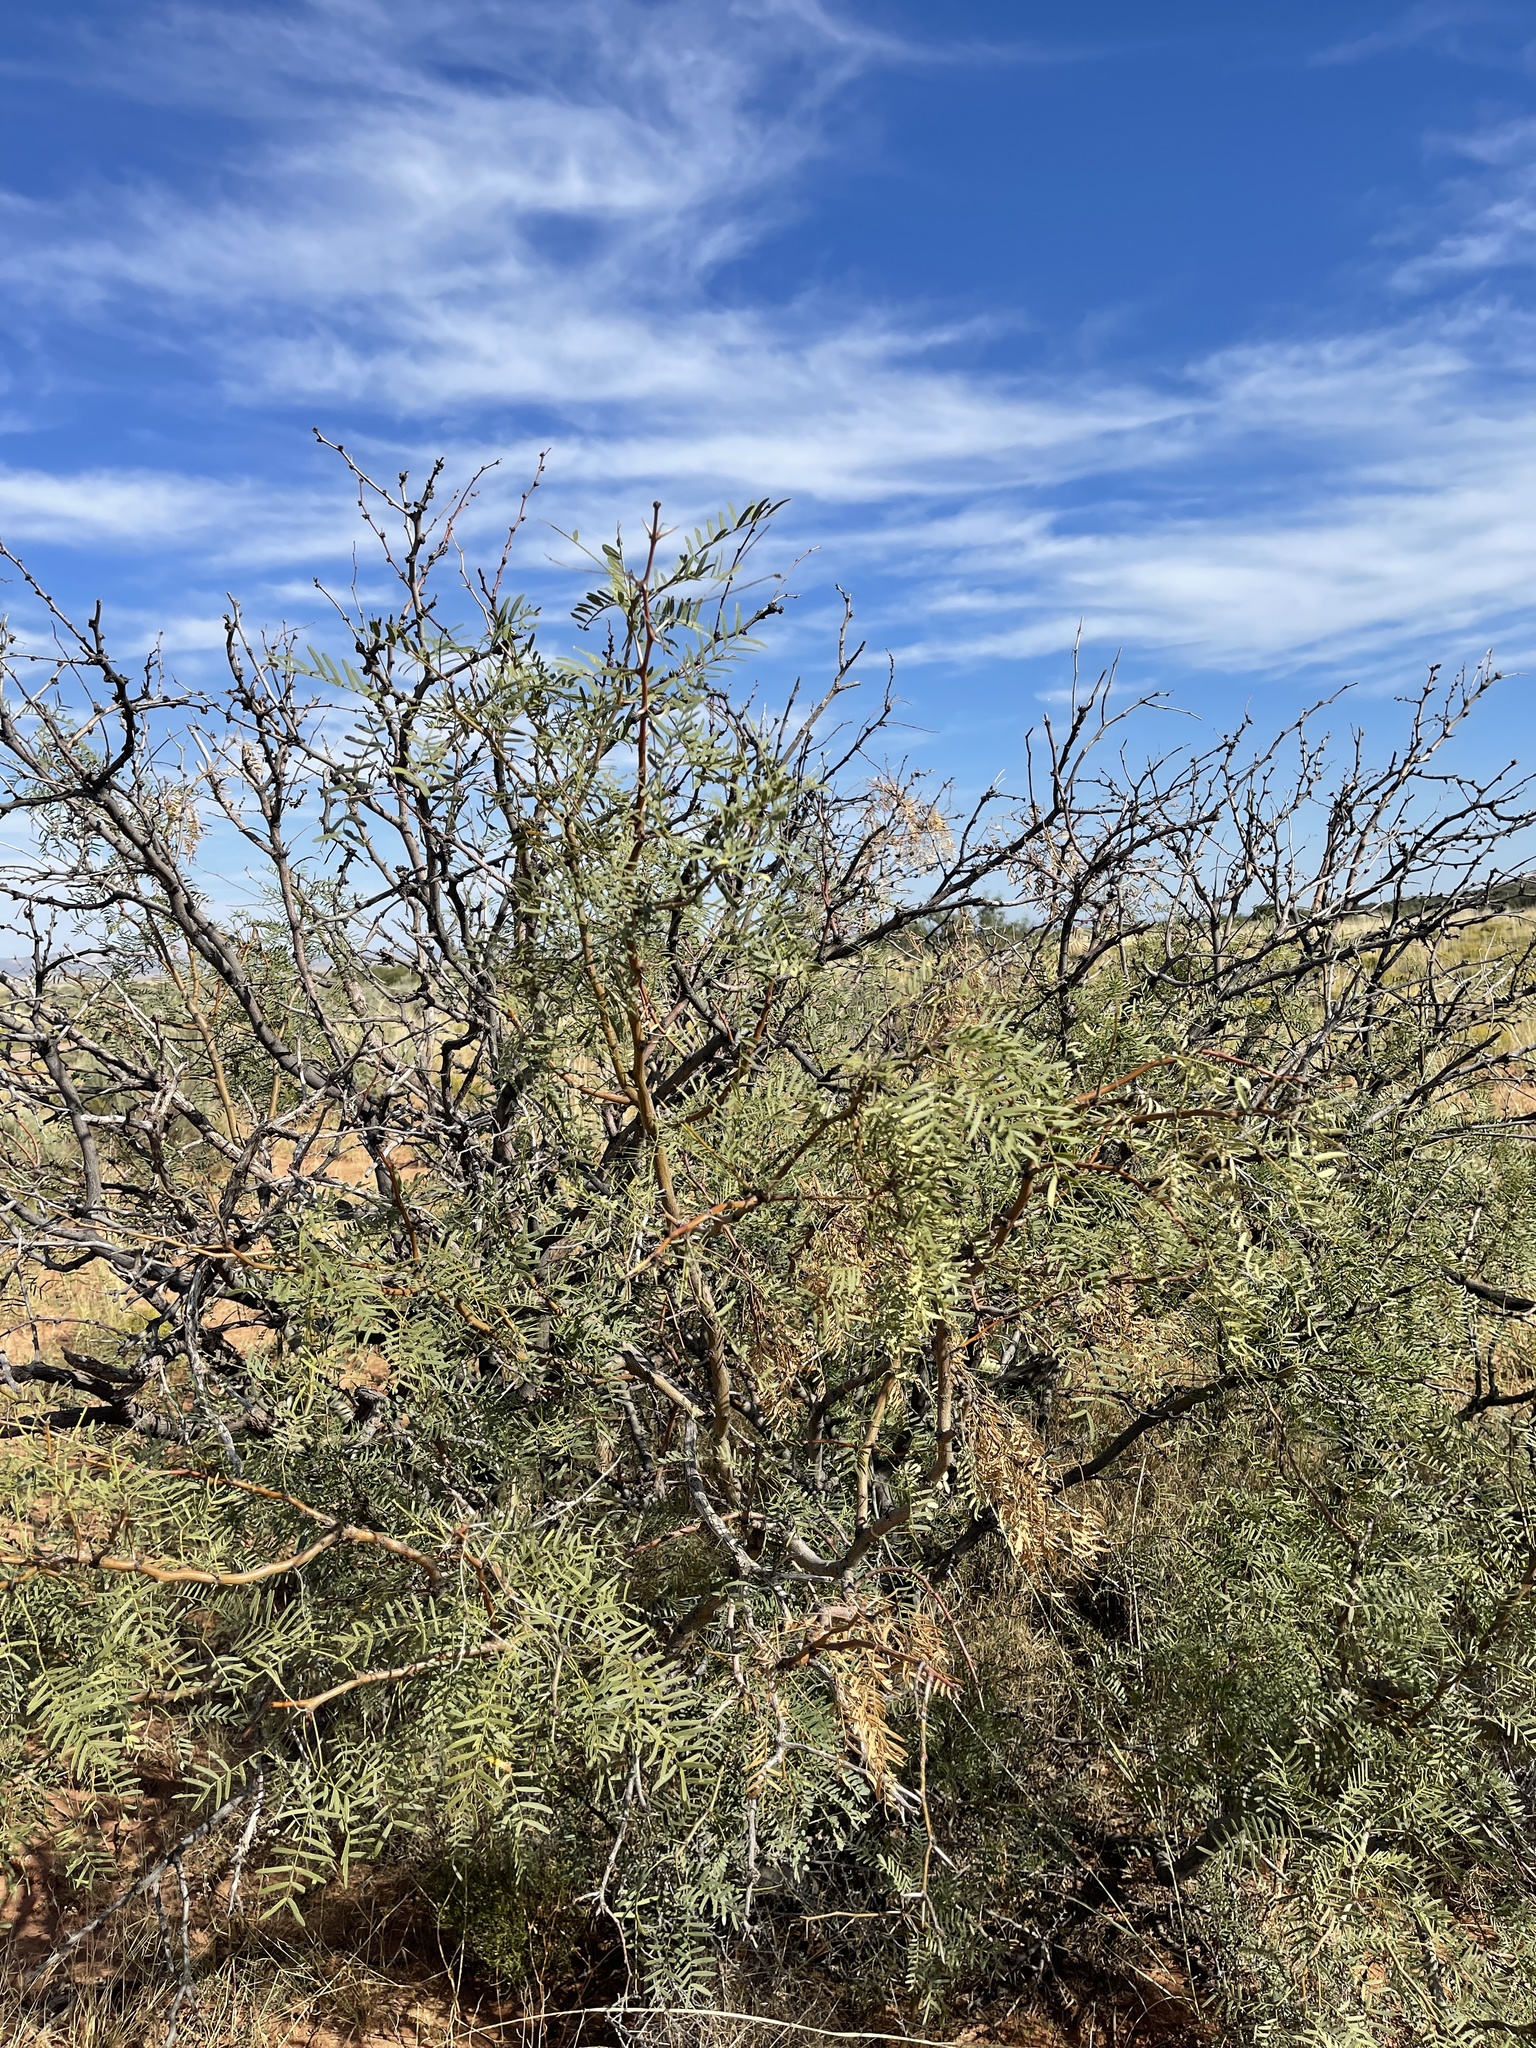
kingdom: Plantae
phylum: Tracheophyta
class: Magnoliopsida
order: Fabales
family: Fabaceae
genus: Prosopis
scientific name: Prosopis glandulosa
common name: Honey mesquite
